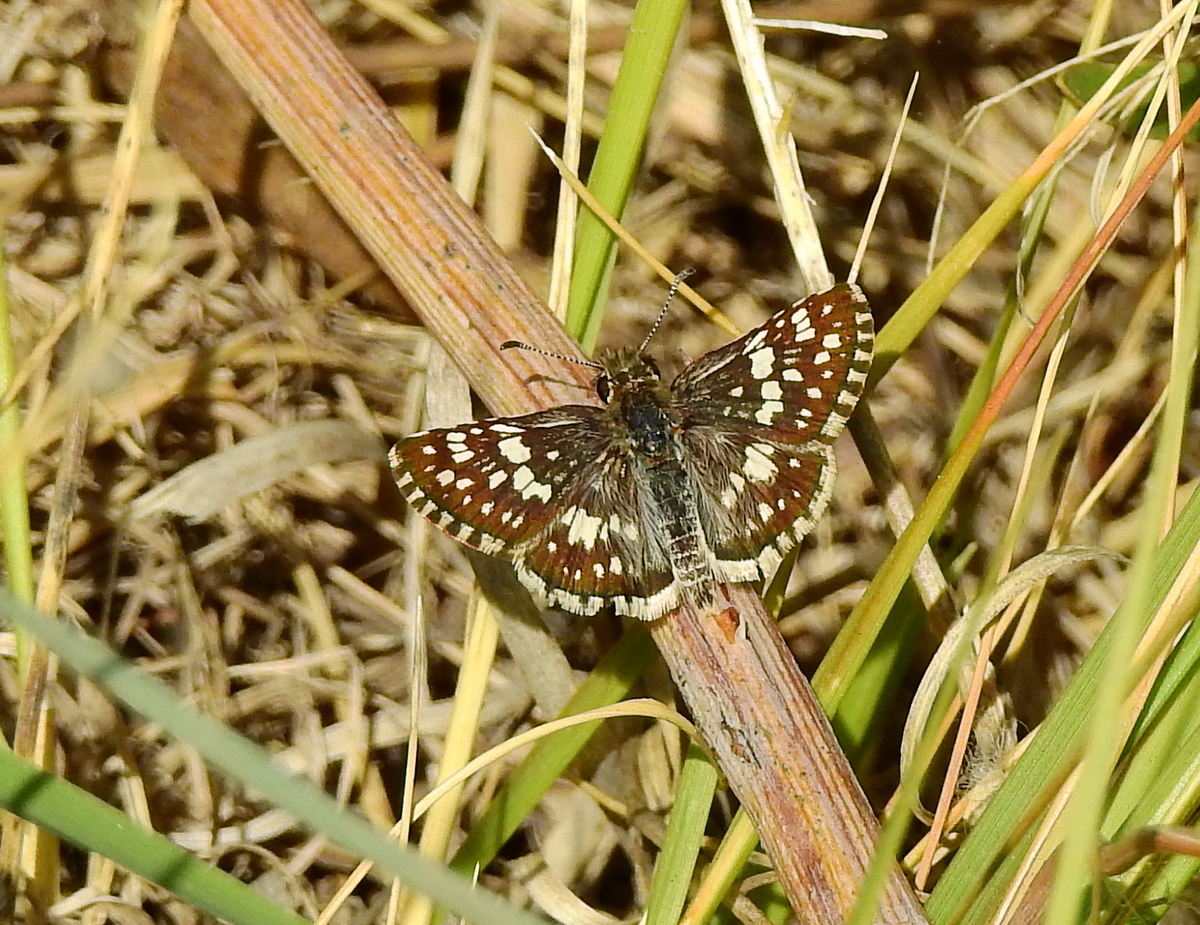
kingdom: Animalia
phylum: Arthropoda
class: Insecta
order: Lepidoptera
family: Hesperiidae
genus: Burnsius
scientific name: Burnsius orcynoides
